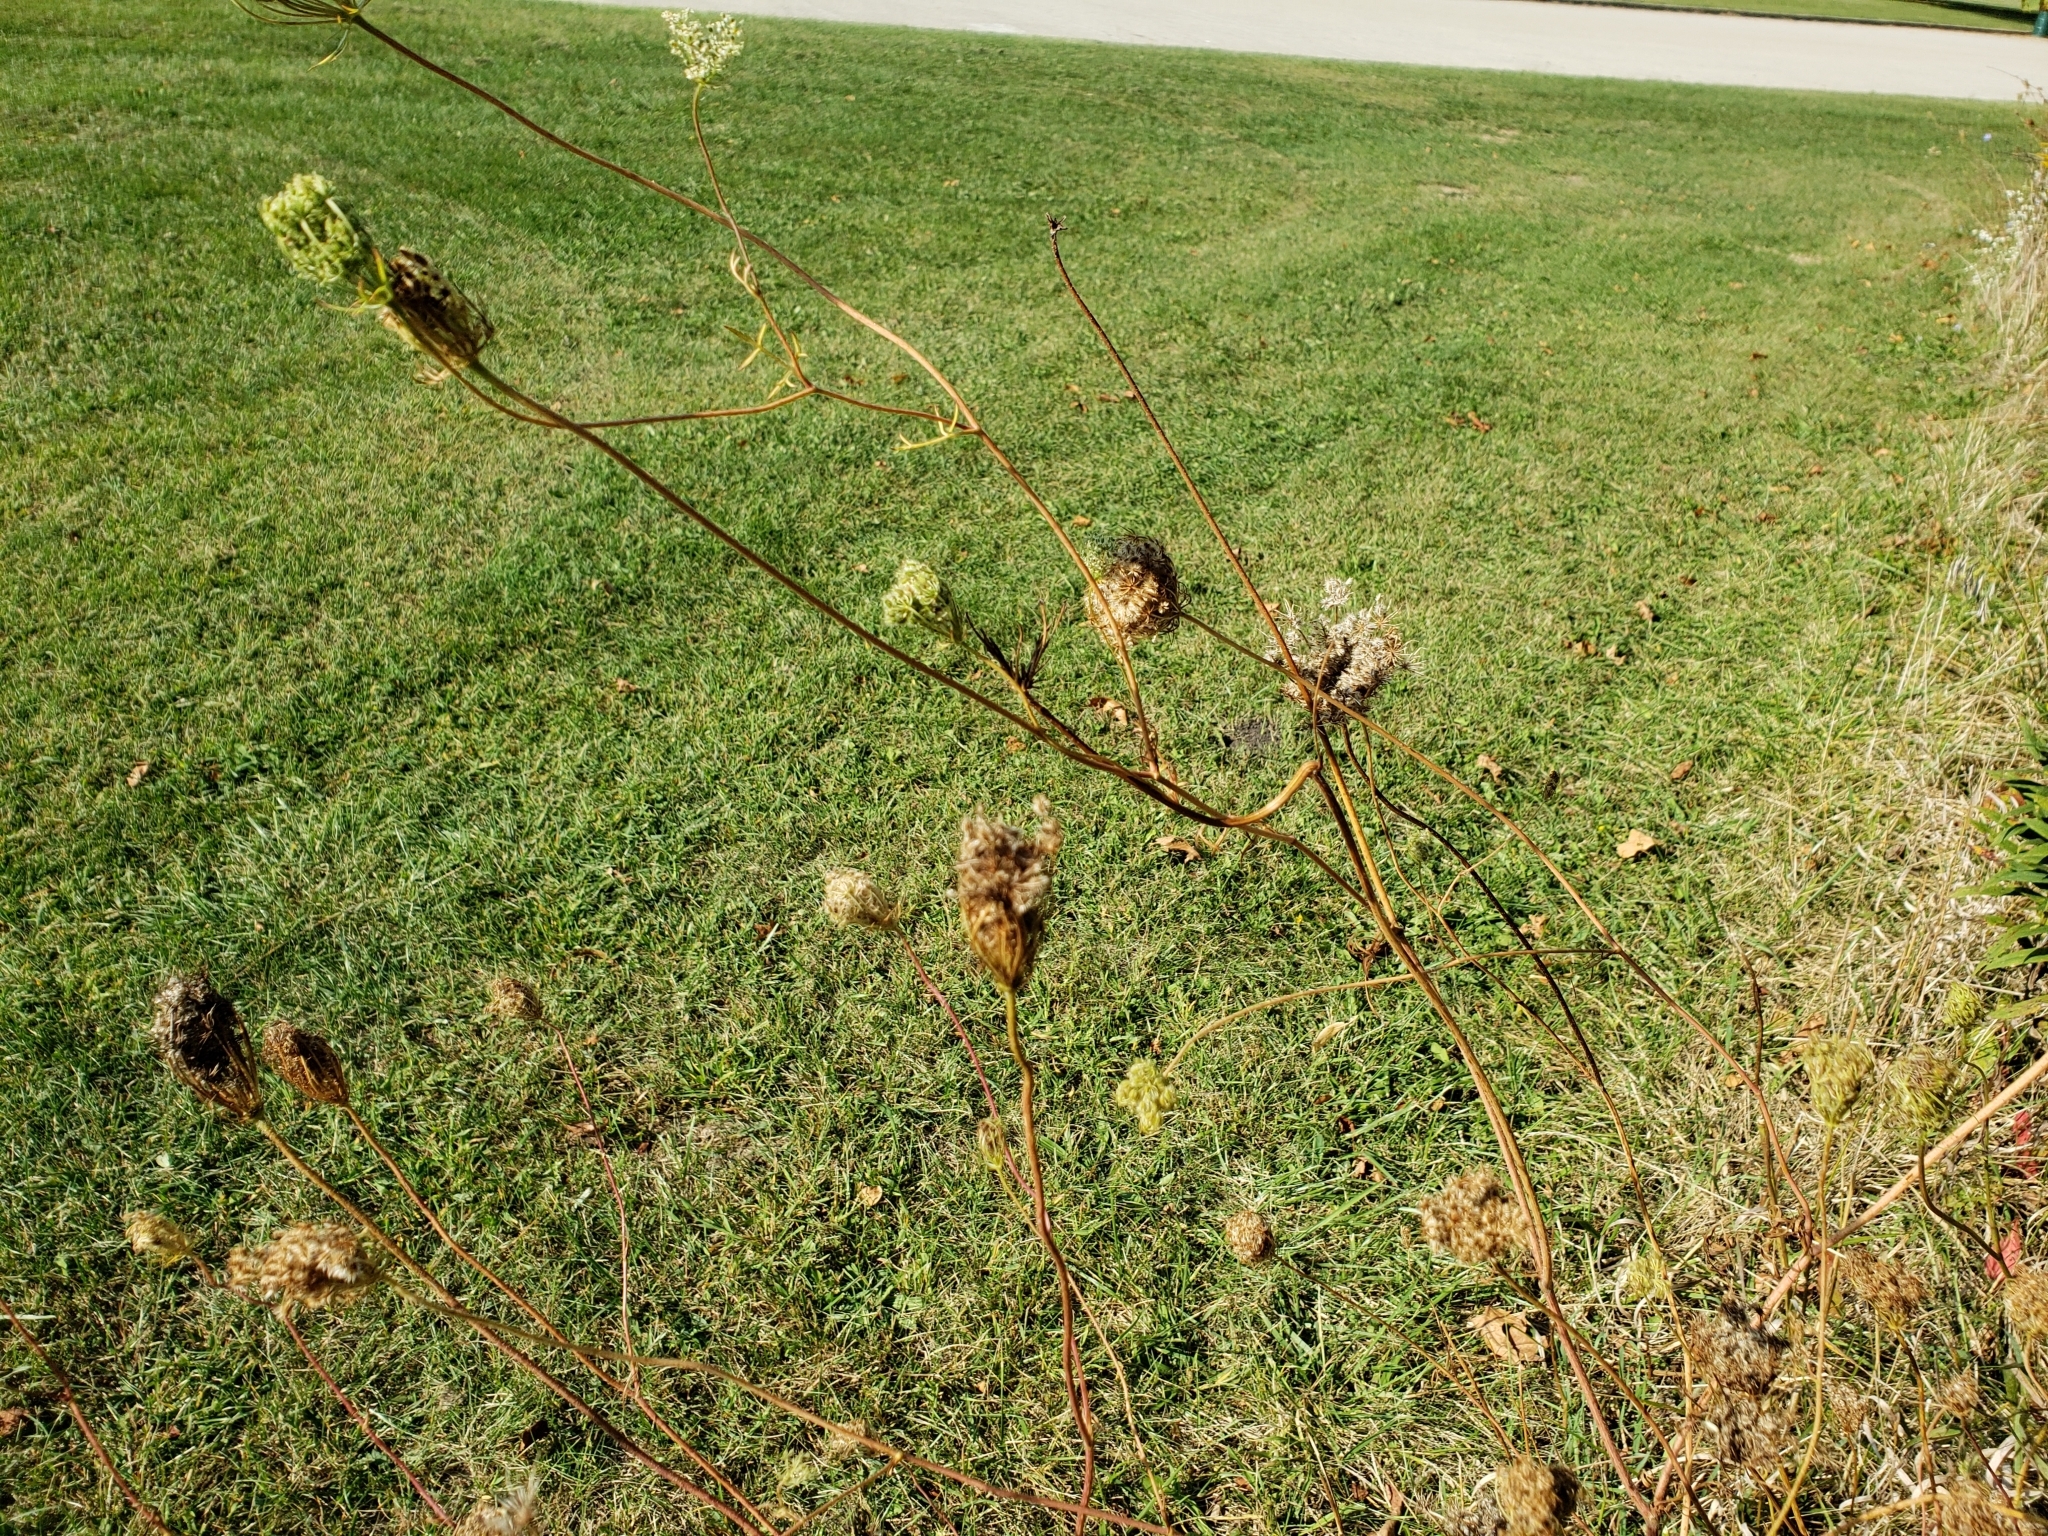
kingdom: Plantae
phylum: Tracheophyta
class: Magnoliopsida
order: Apiales
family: Apiaceae
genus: Daucus
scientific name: Daucus carota
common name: Wild carrot
